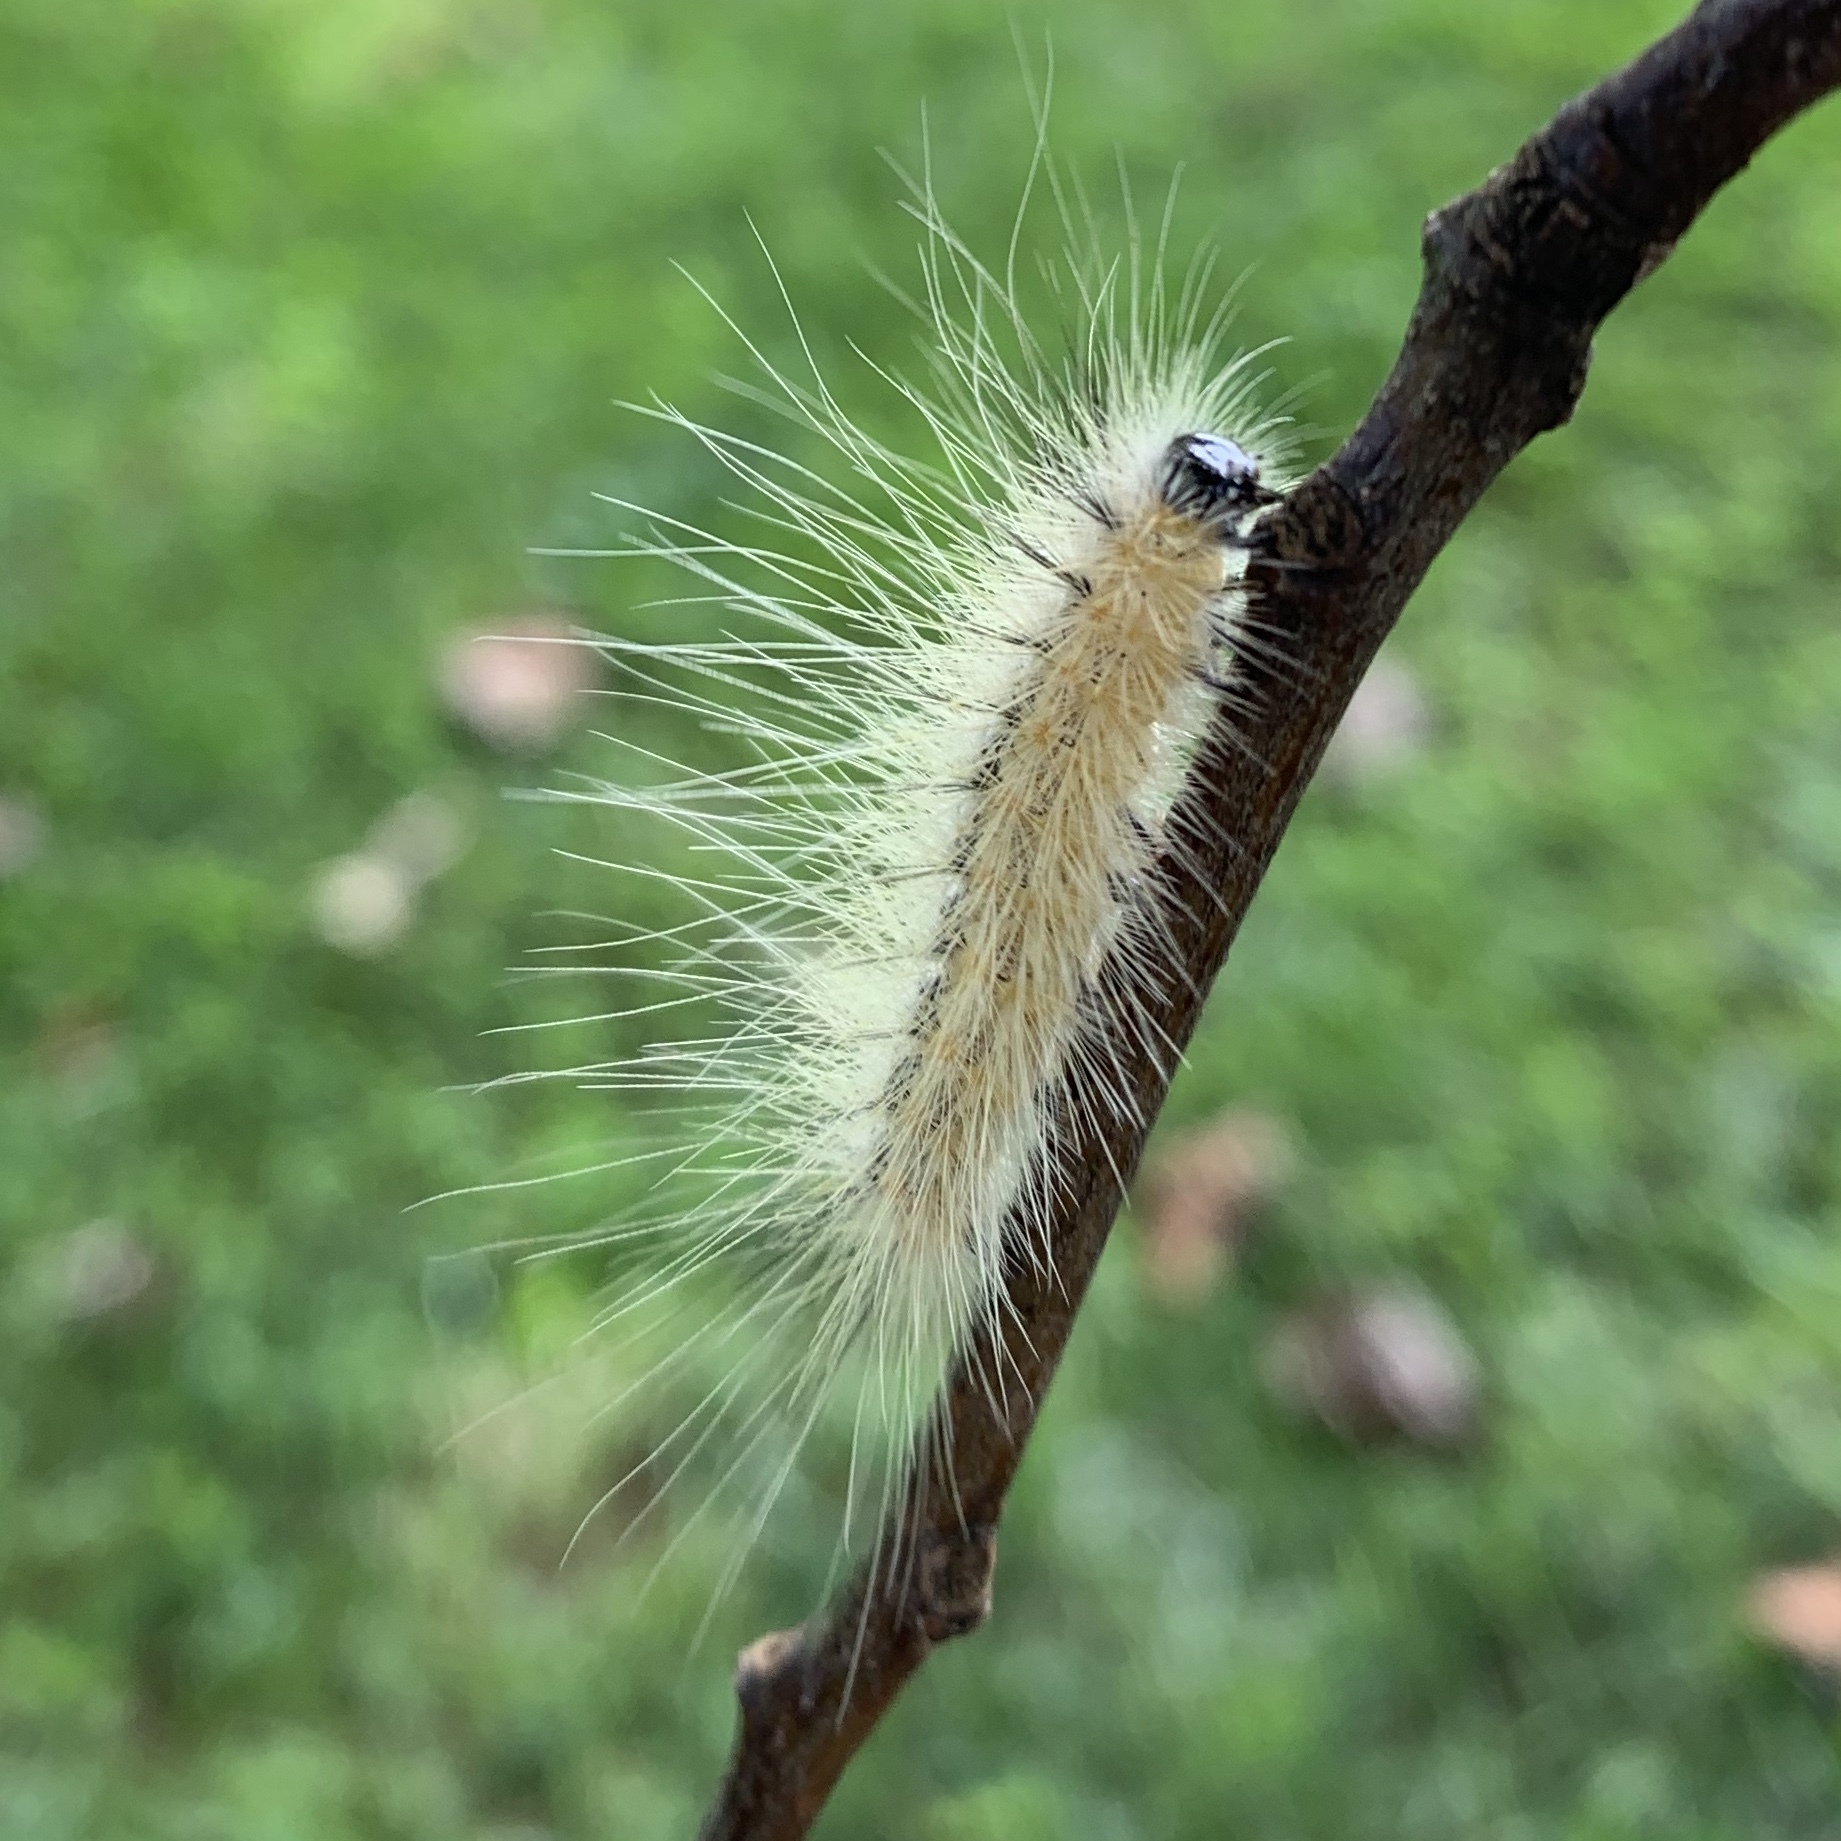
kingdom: Animalia
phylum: Arthropoda
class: Insecta
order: Lepidoptera
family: Erebidae
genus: Hyphantria
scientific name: Hyphantria cunea
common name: American white moth
